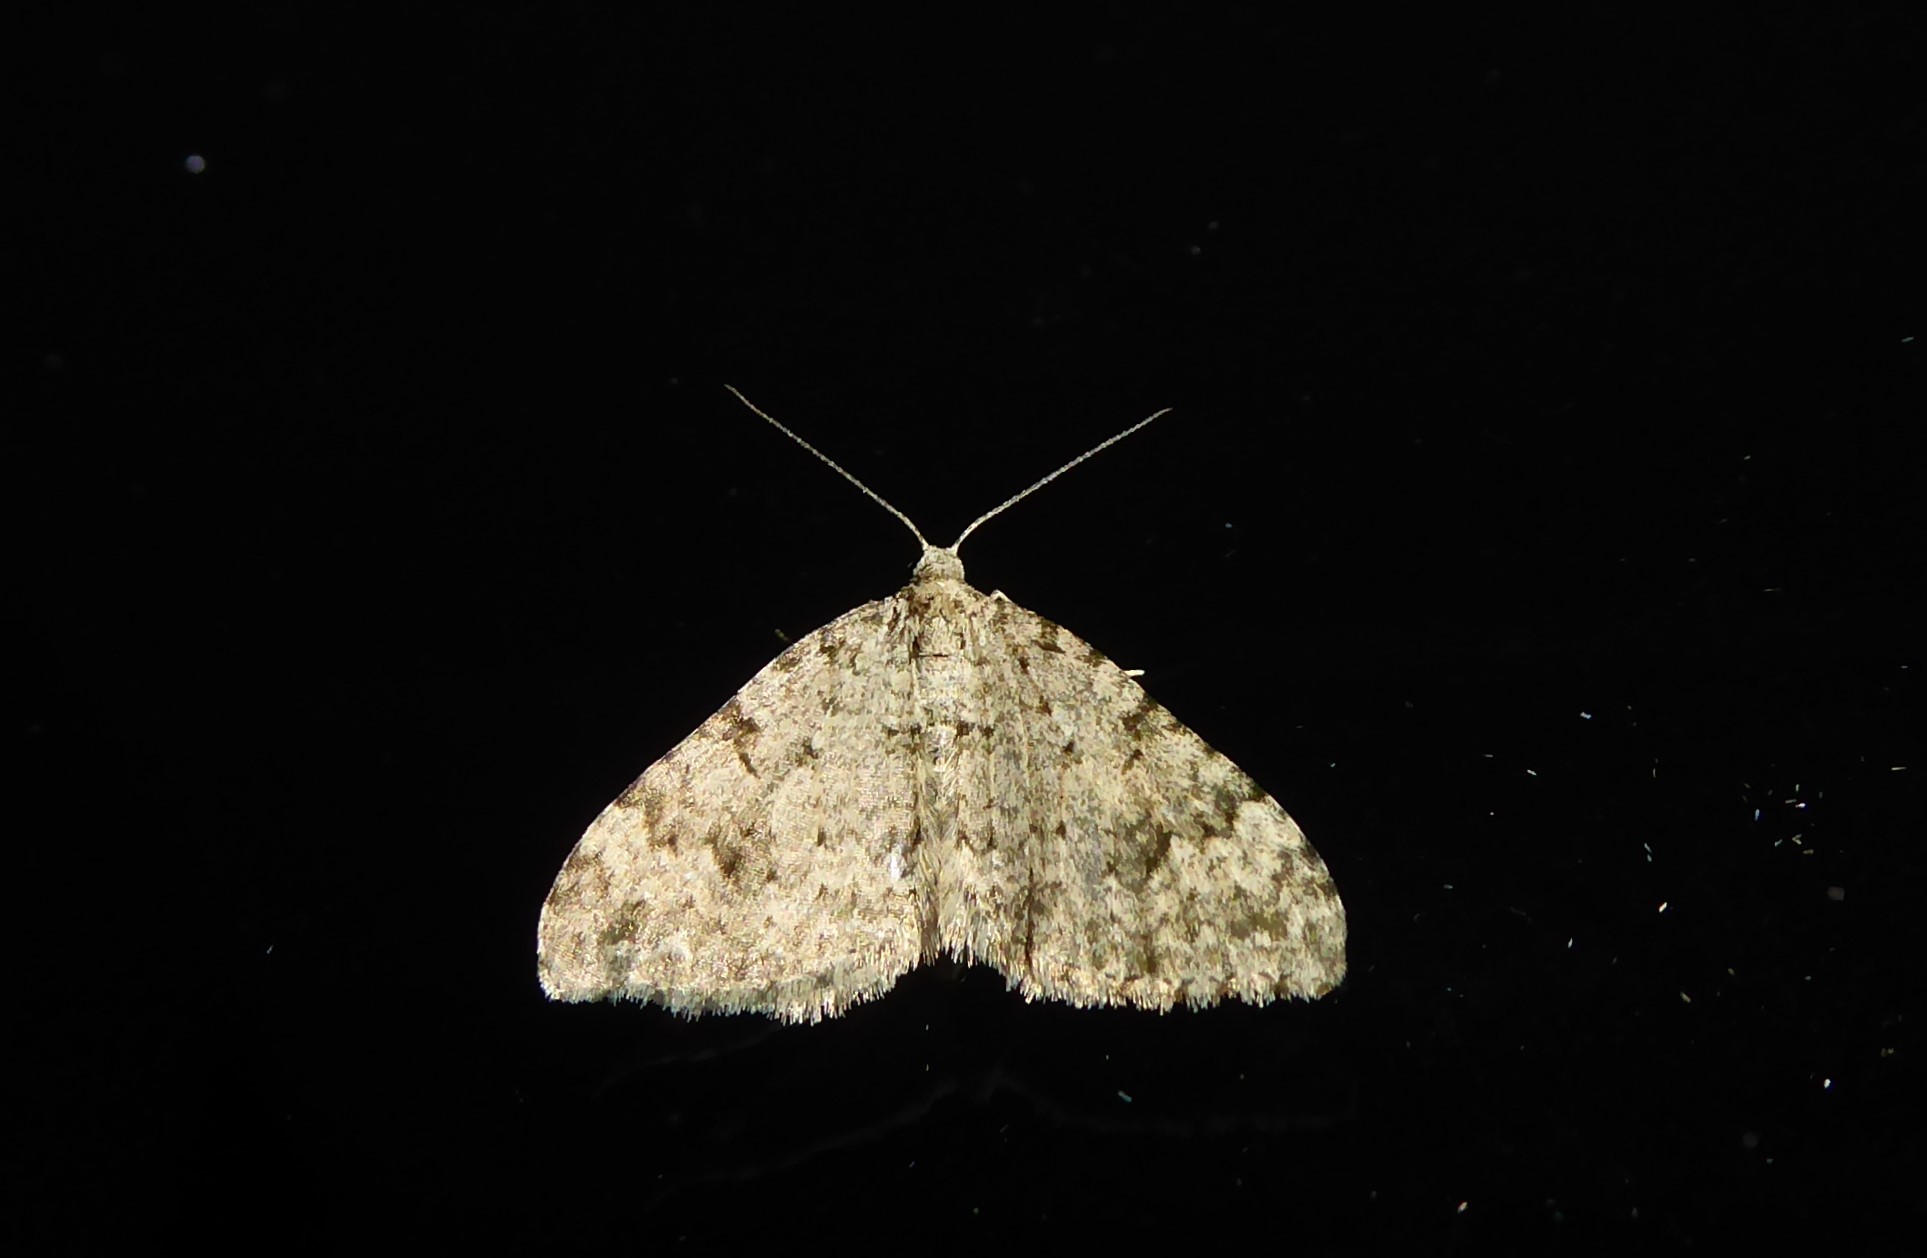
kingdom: Animalia
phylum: Arthropoda
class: Insecta
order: Lepidoptera
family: Geometridae
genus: Helastia
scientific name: Helastia cinerearia
